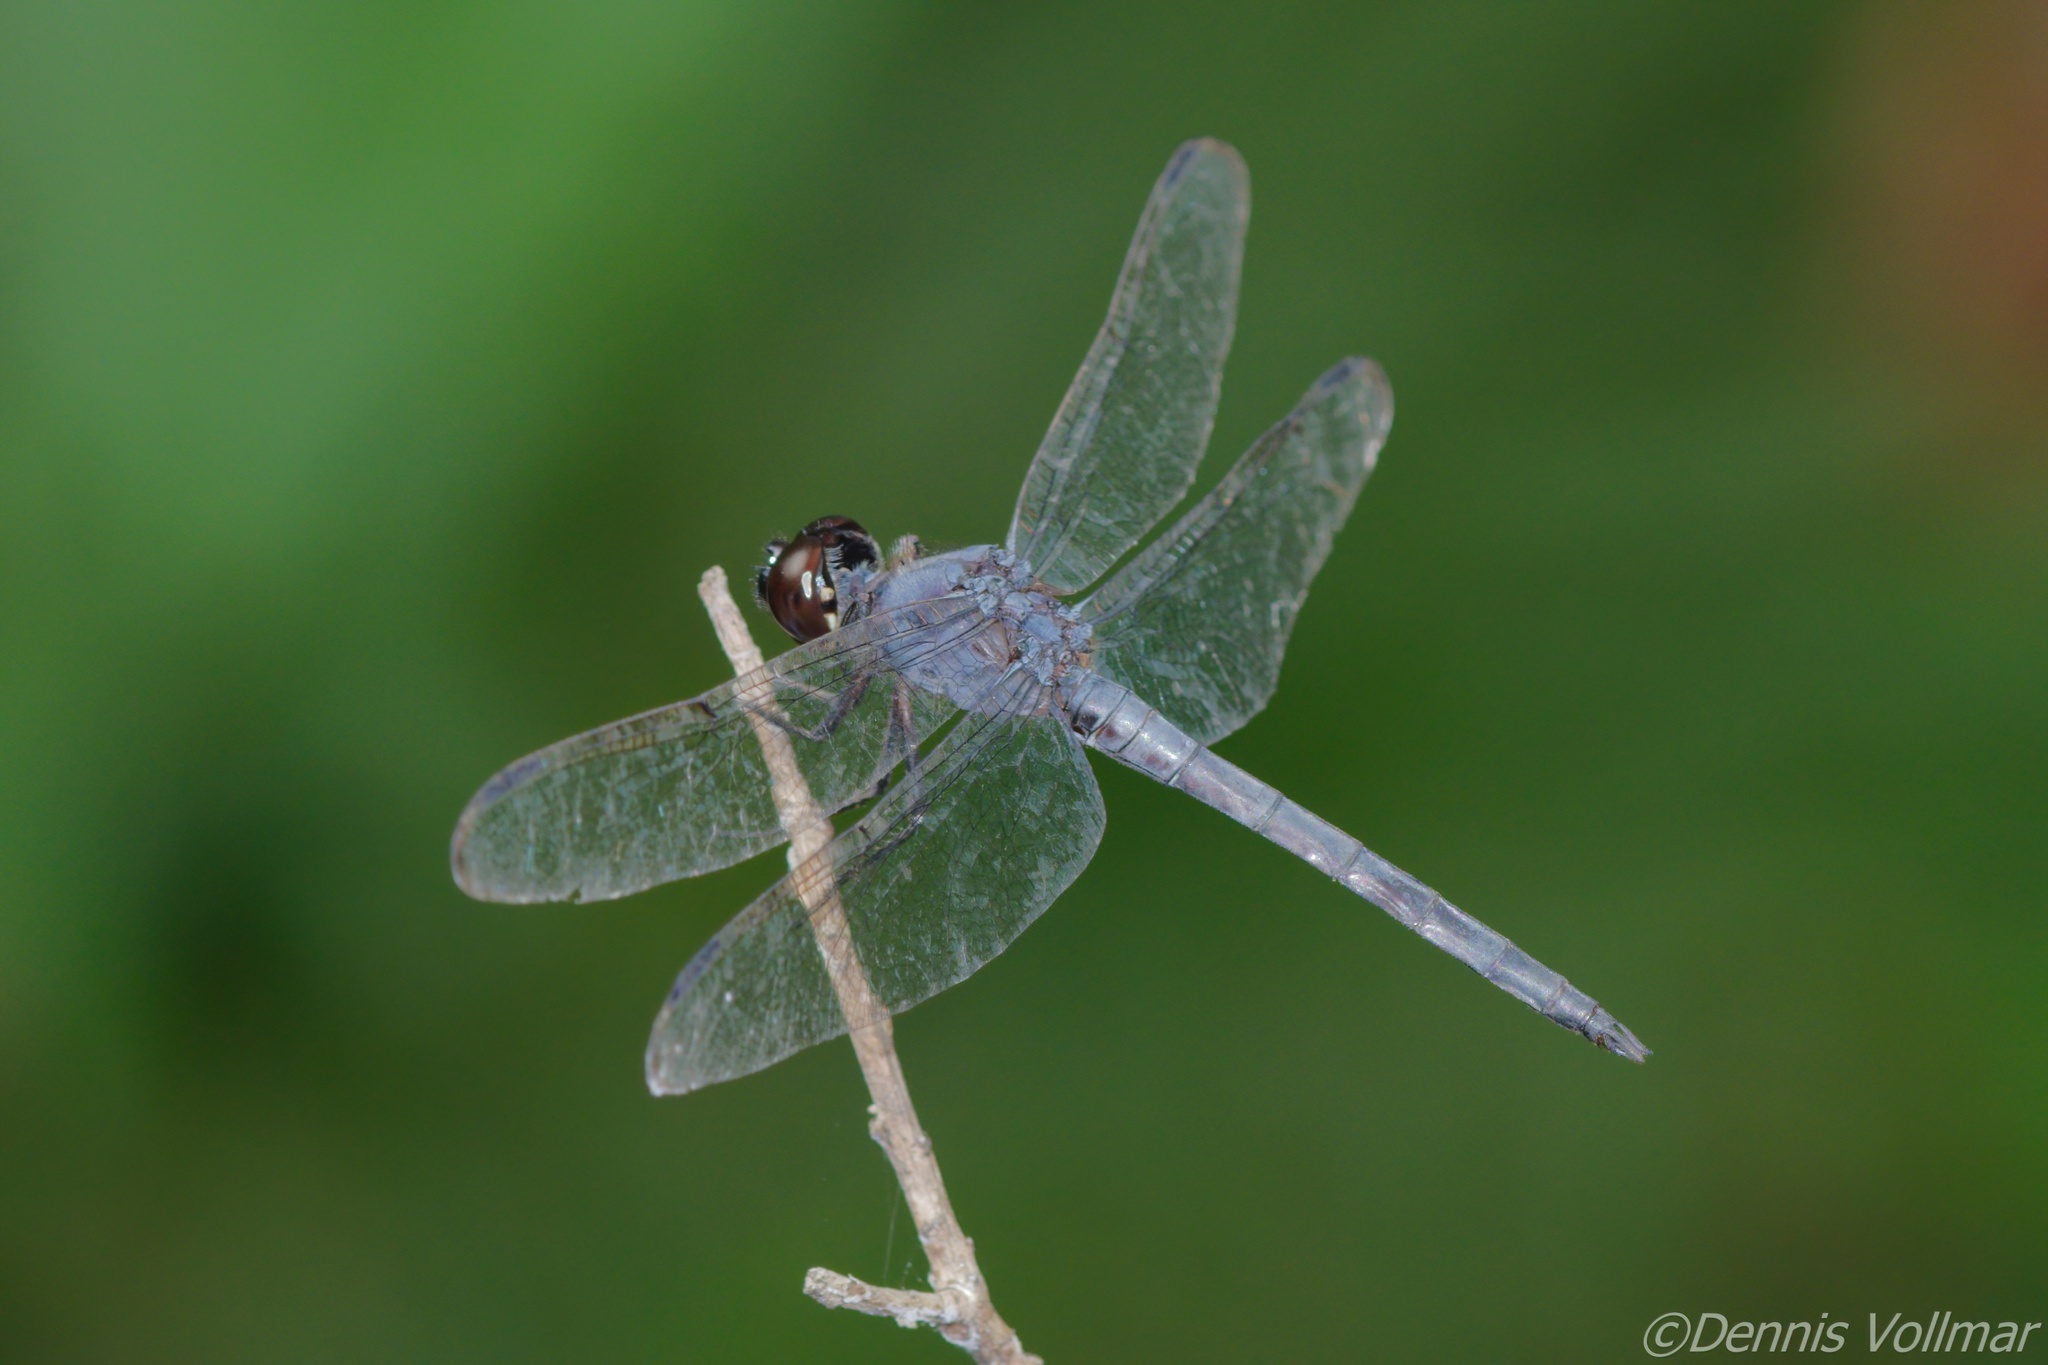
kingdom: Animalia
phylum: Arthropoda
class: Insecta
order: Odonata
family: Libellulidae
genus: Libellula
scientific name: Libellula incesta
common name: Slaty skimmer
